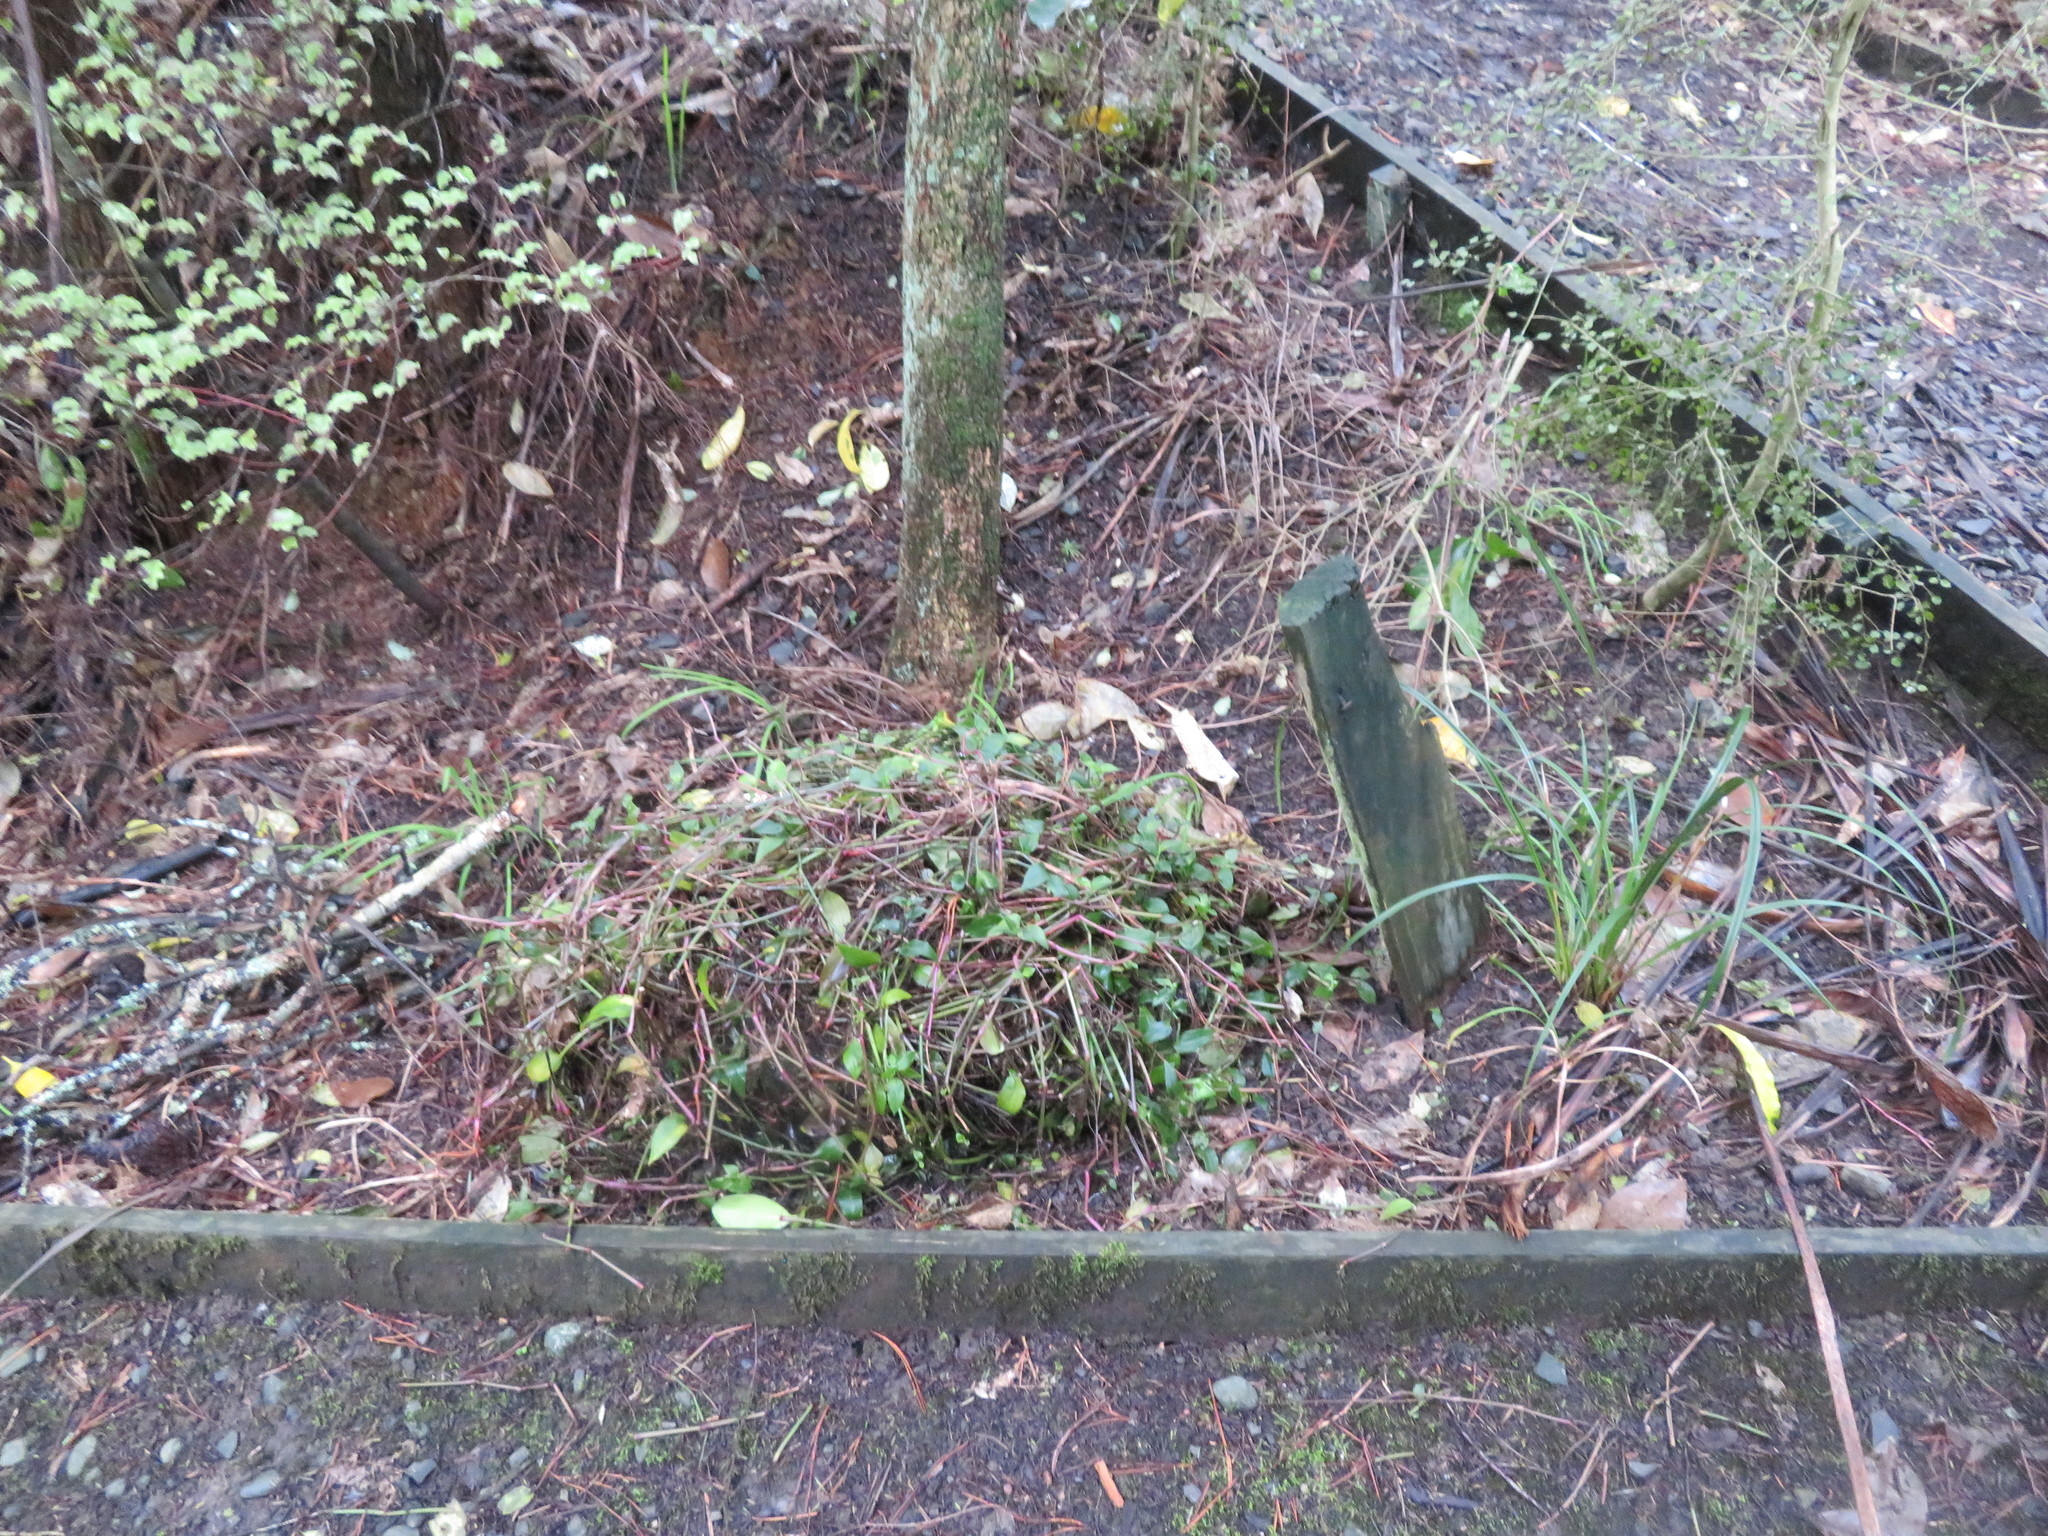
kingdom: Plantae
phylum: Tracheophyta
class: Liliopsida
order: Commelinales
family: Commelinaceae
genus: Tradescantia
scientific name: Tradescantia fluminensis
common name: Wandering-jew
